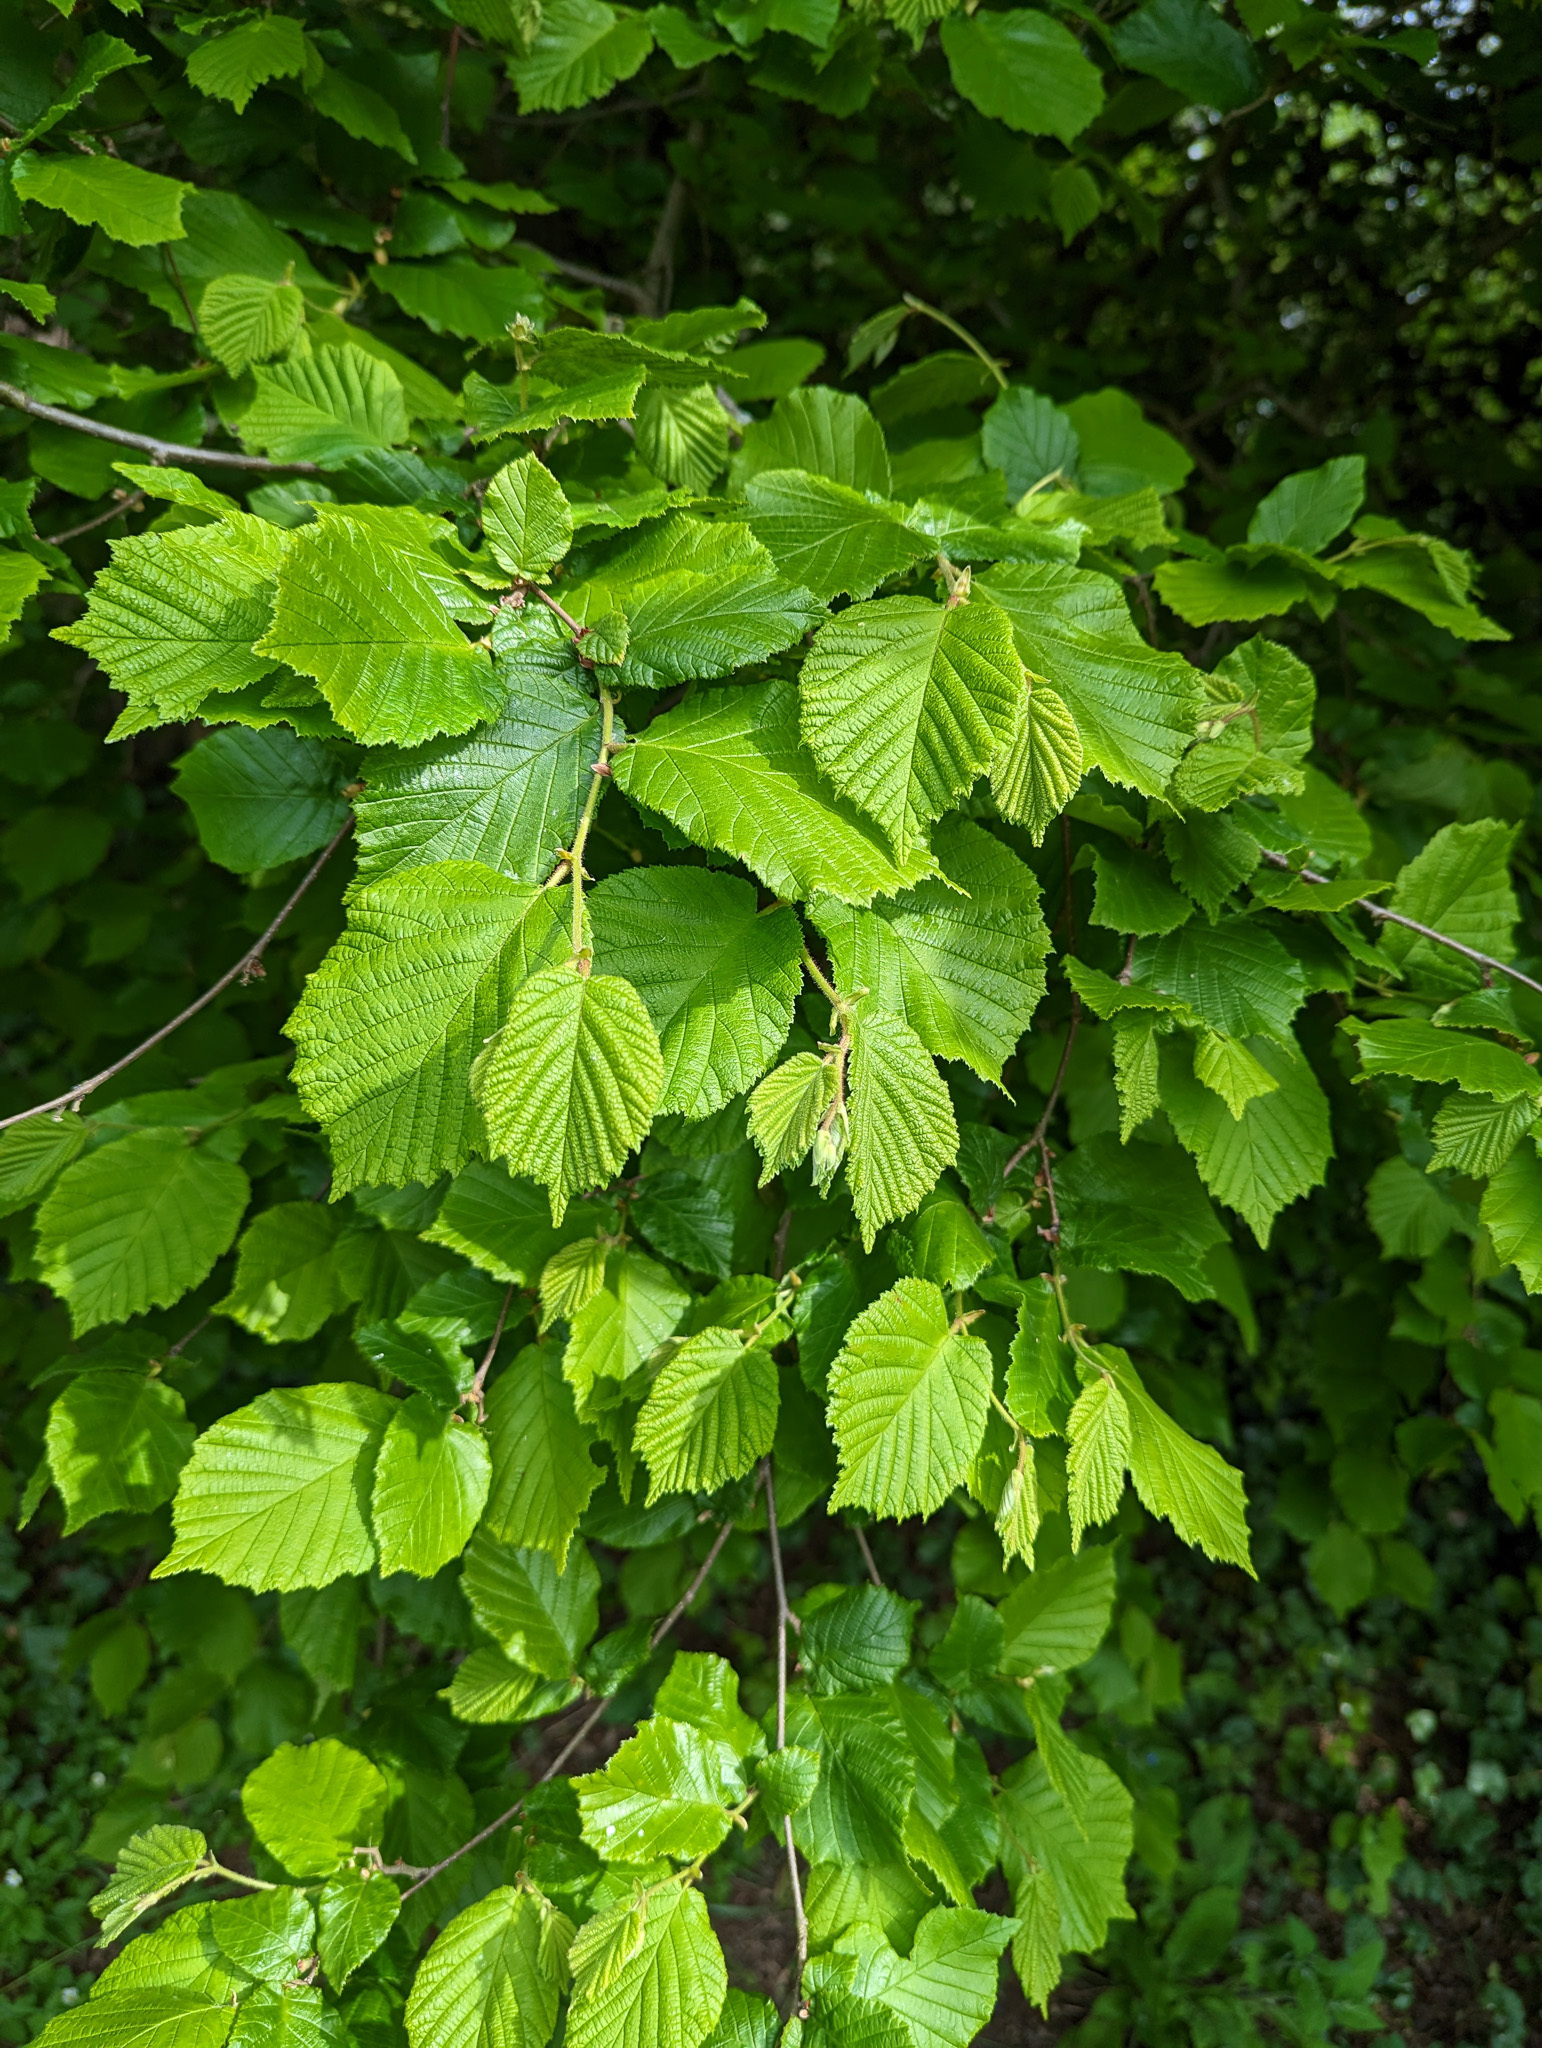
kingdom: Plantae
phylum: Tracheophyta
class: Magnoliopsida
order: Fagales
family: Betulaceae
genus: Corylus
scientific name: Corylus avellana
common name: European hazel
